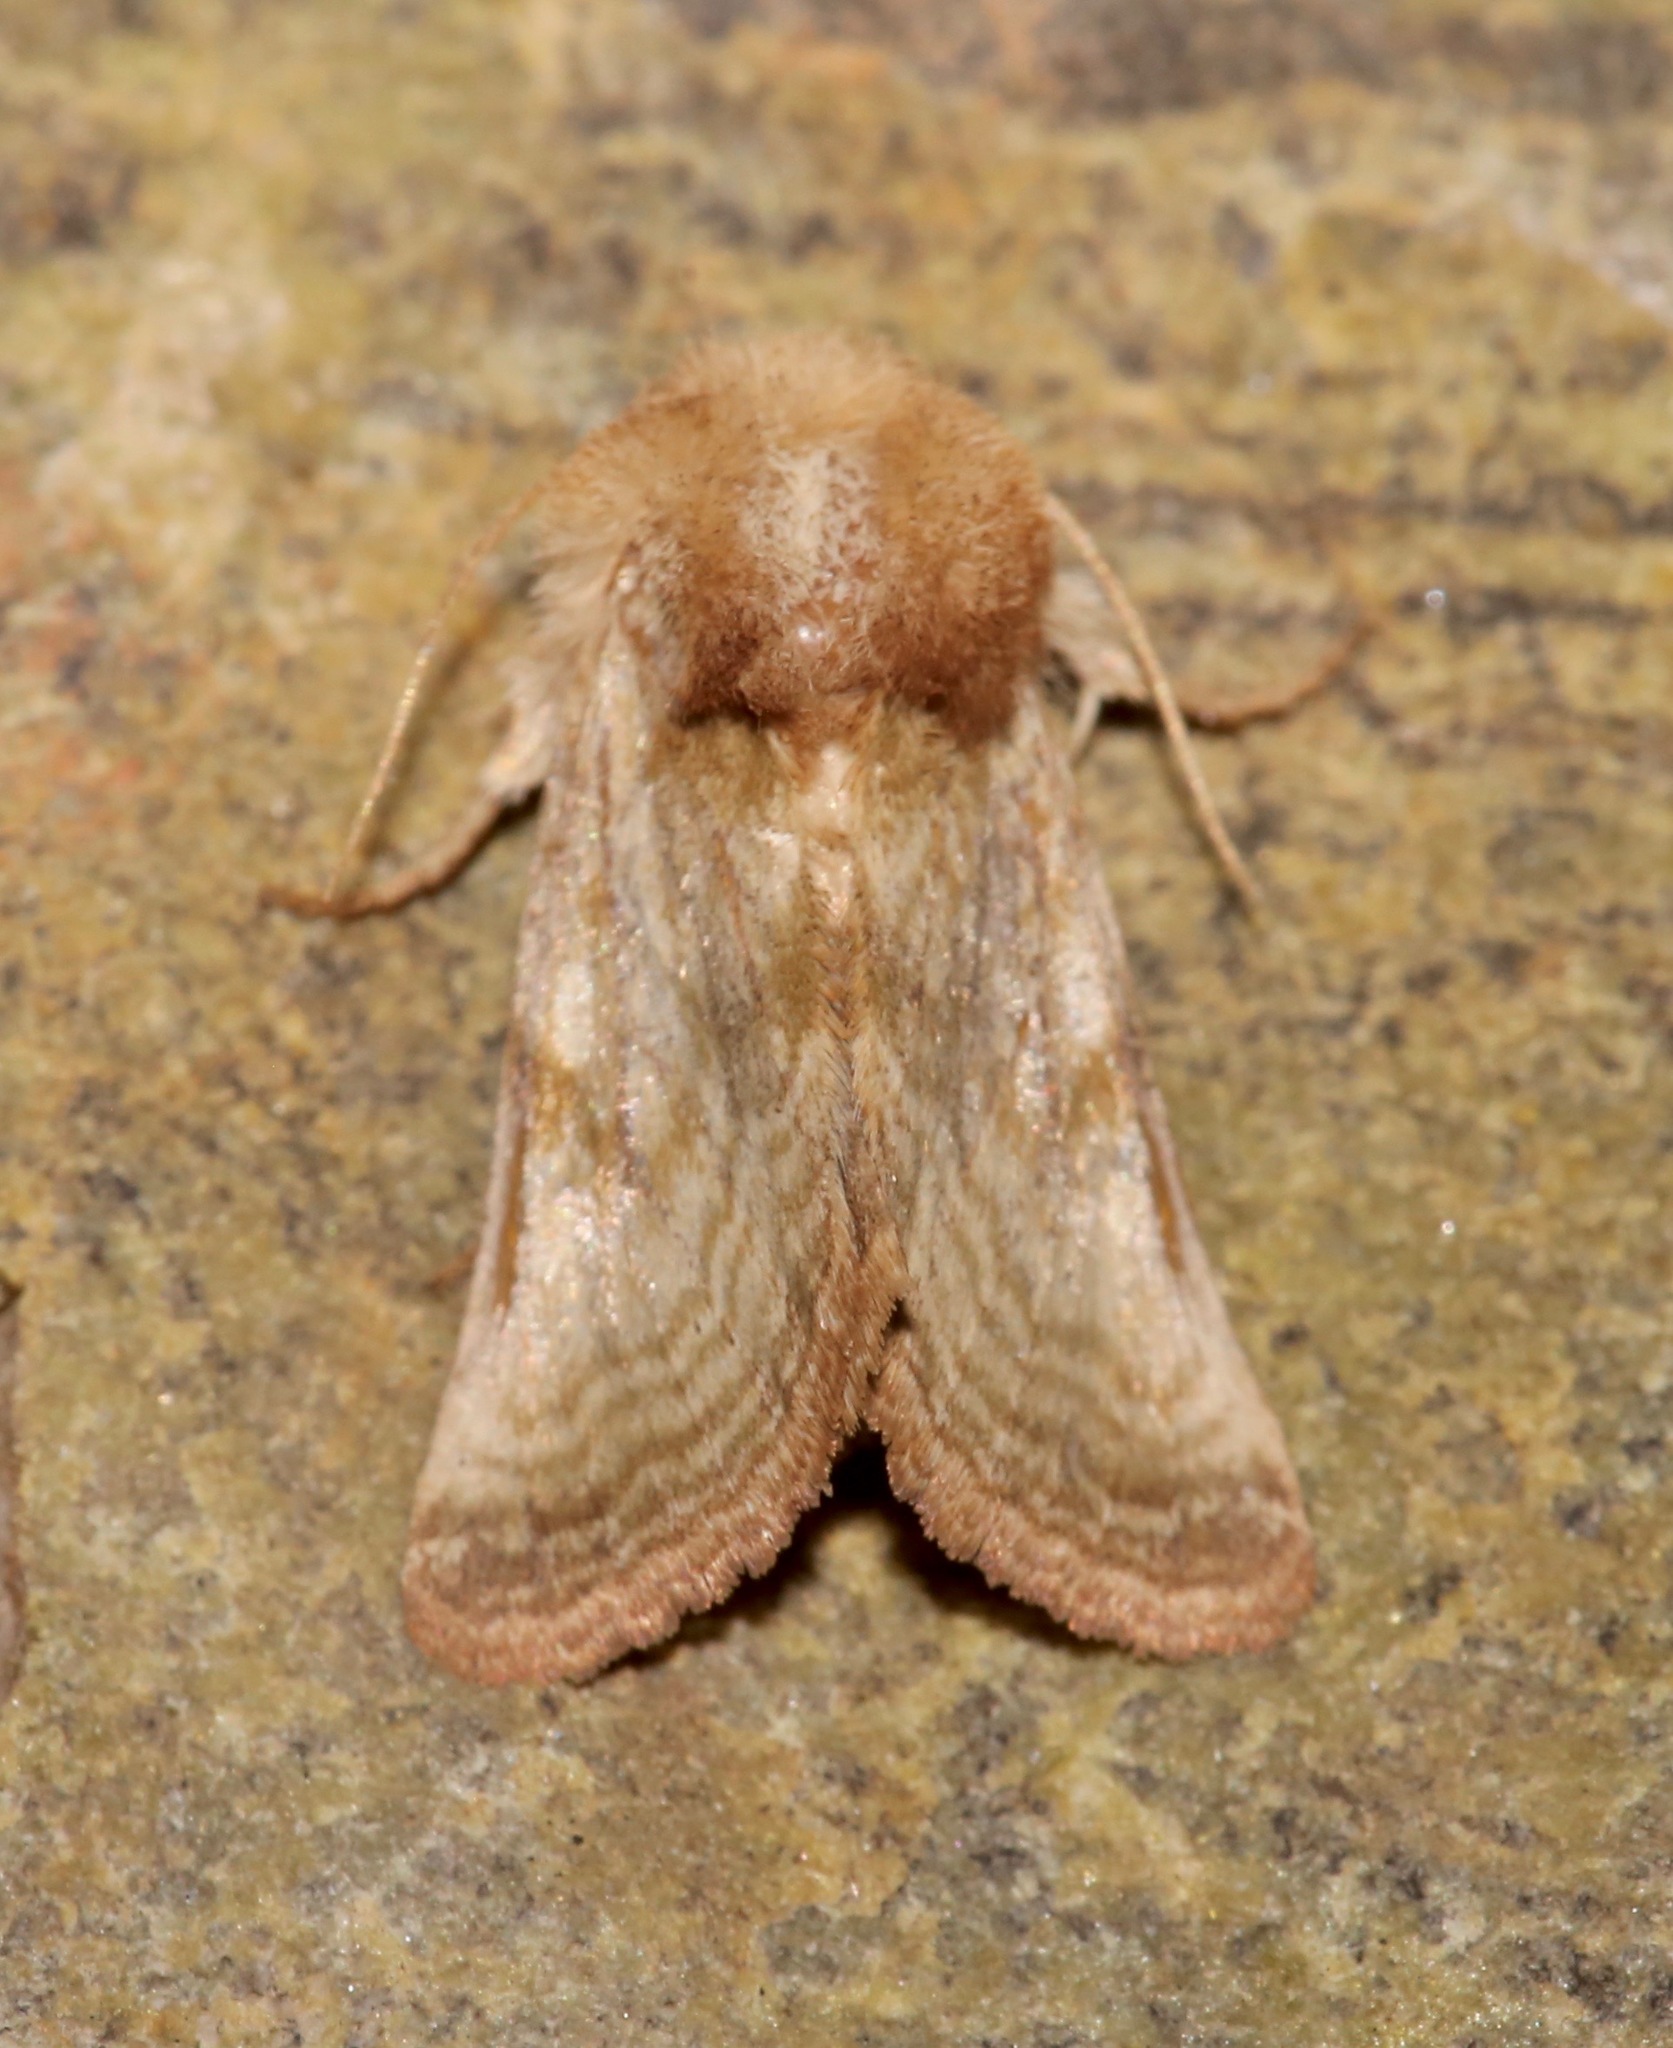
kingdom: Animalia
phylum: Arthropoda
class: Insecta
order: Lepidoptera
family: Noctuidae
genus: Nocloa
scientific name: Nocloa rivulosa
